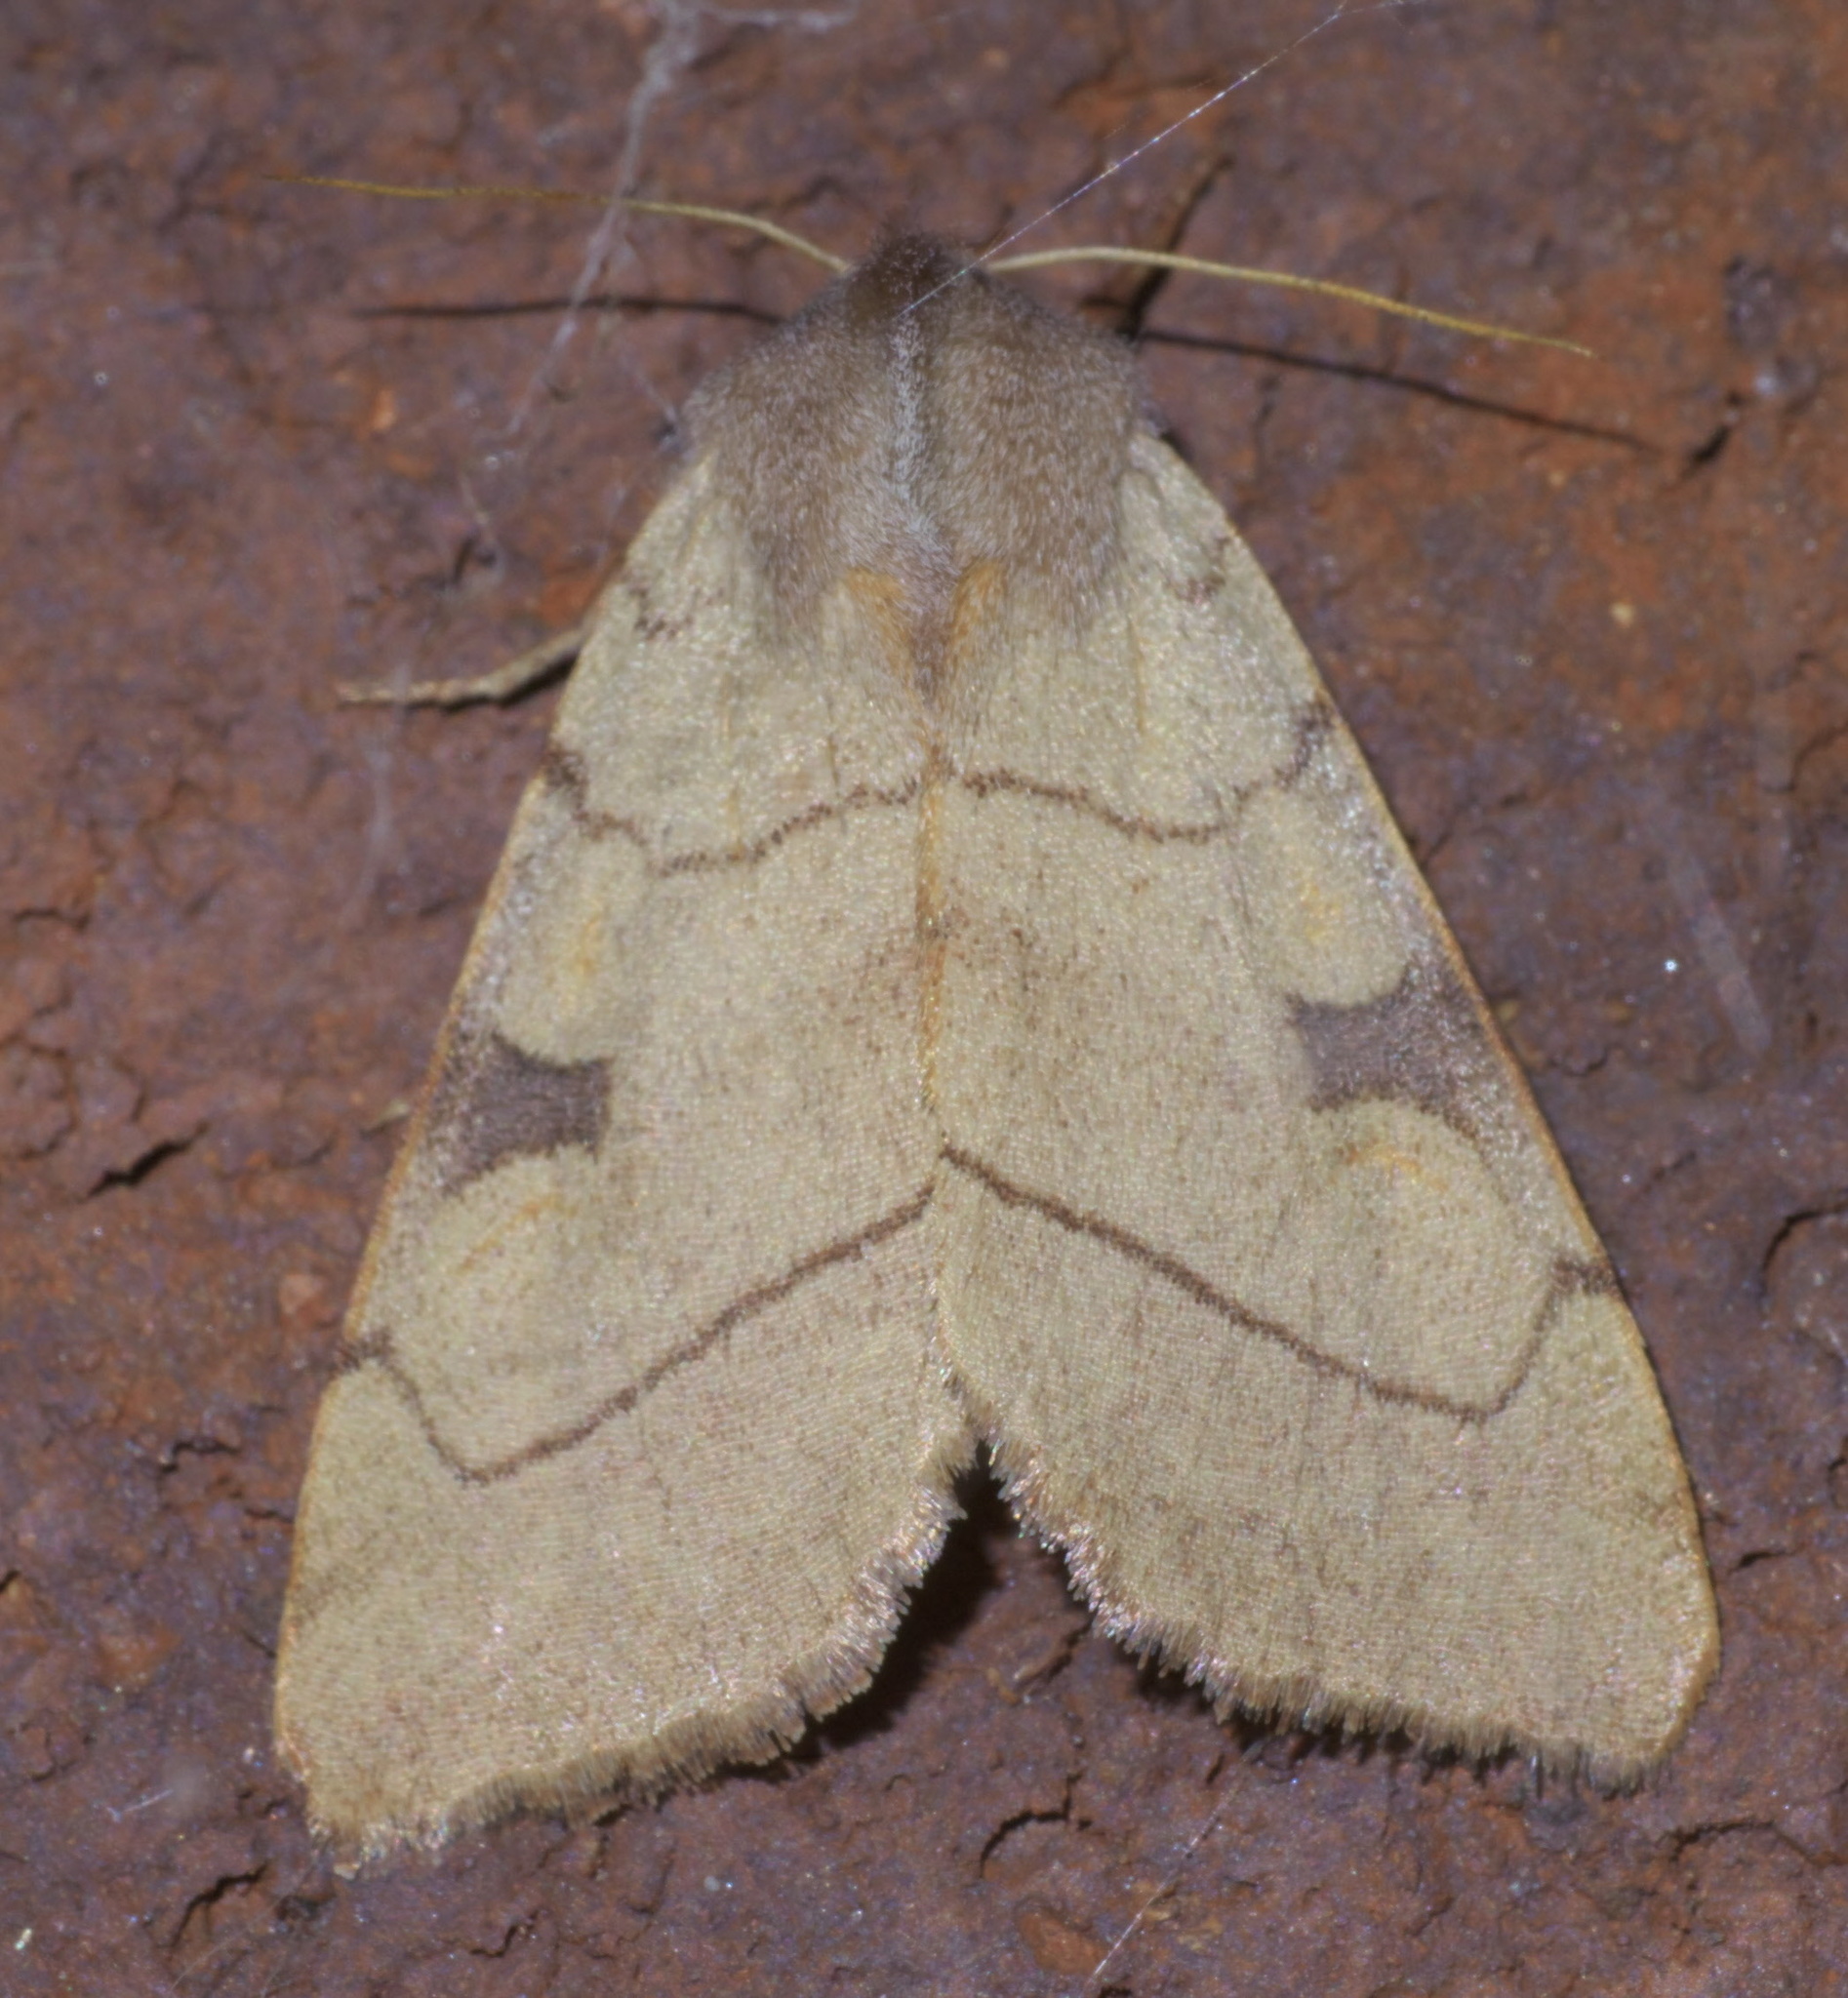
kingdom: Animalia
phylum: Arthropoda
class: Insecta
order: Lepidoptera
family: Noctuidae
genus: Choephora
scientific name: Choephora fungorum
